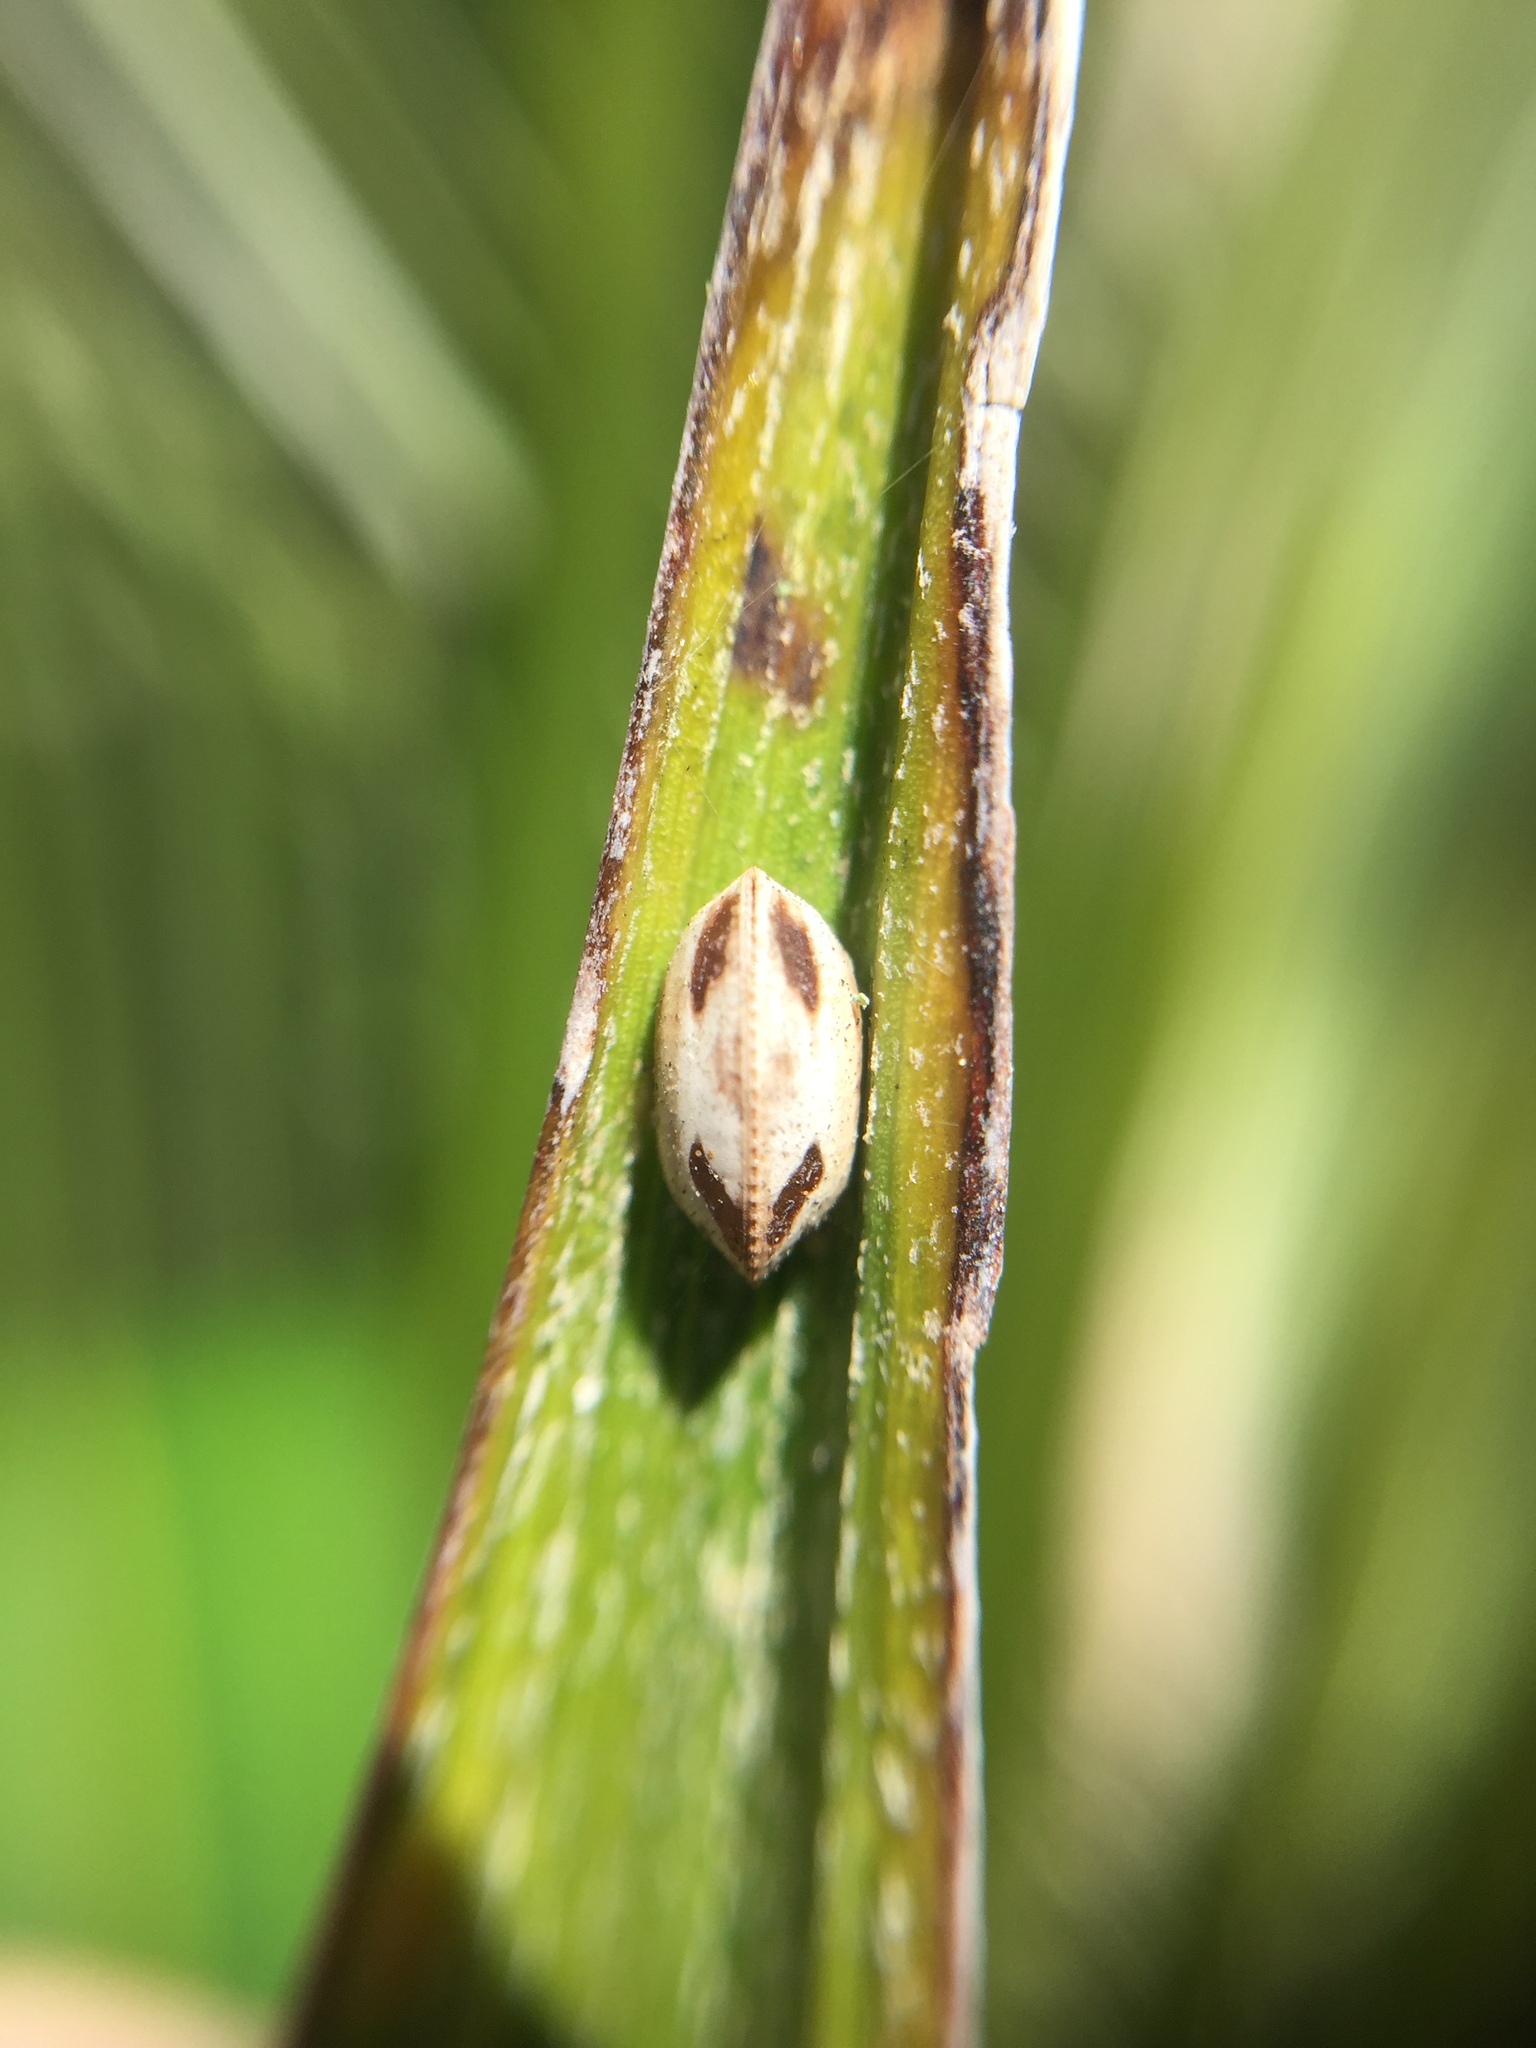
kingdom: Animalia
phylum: Arthropoda
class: Insecta
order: Blattodea
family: Ectobiidae
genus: Balta
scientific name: Balta bicolor
